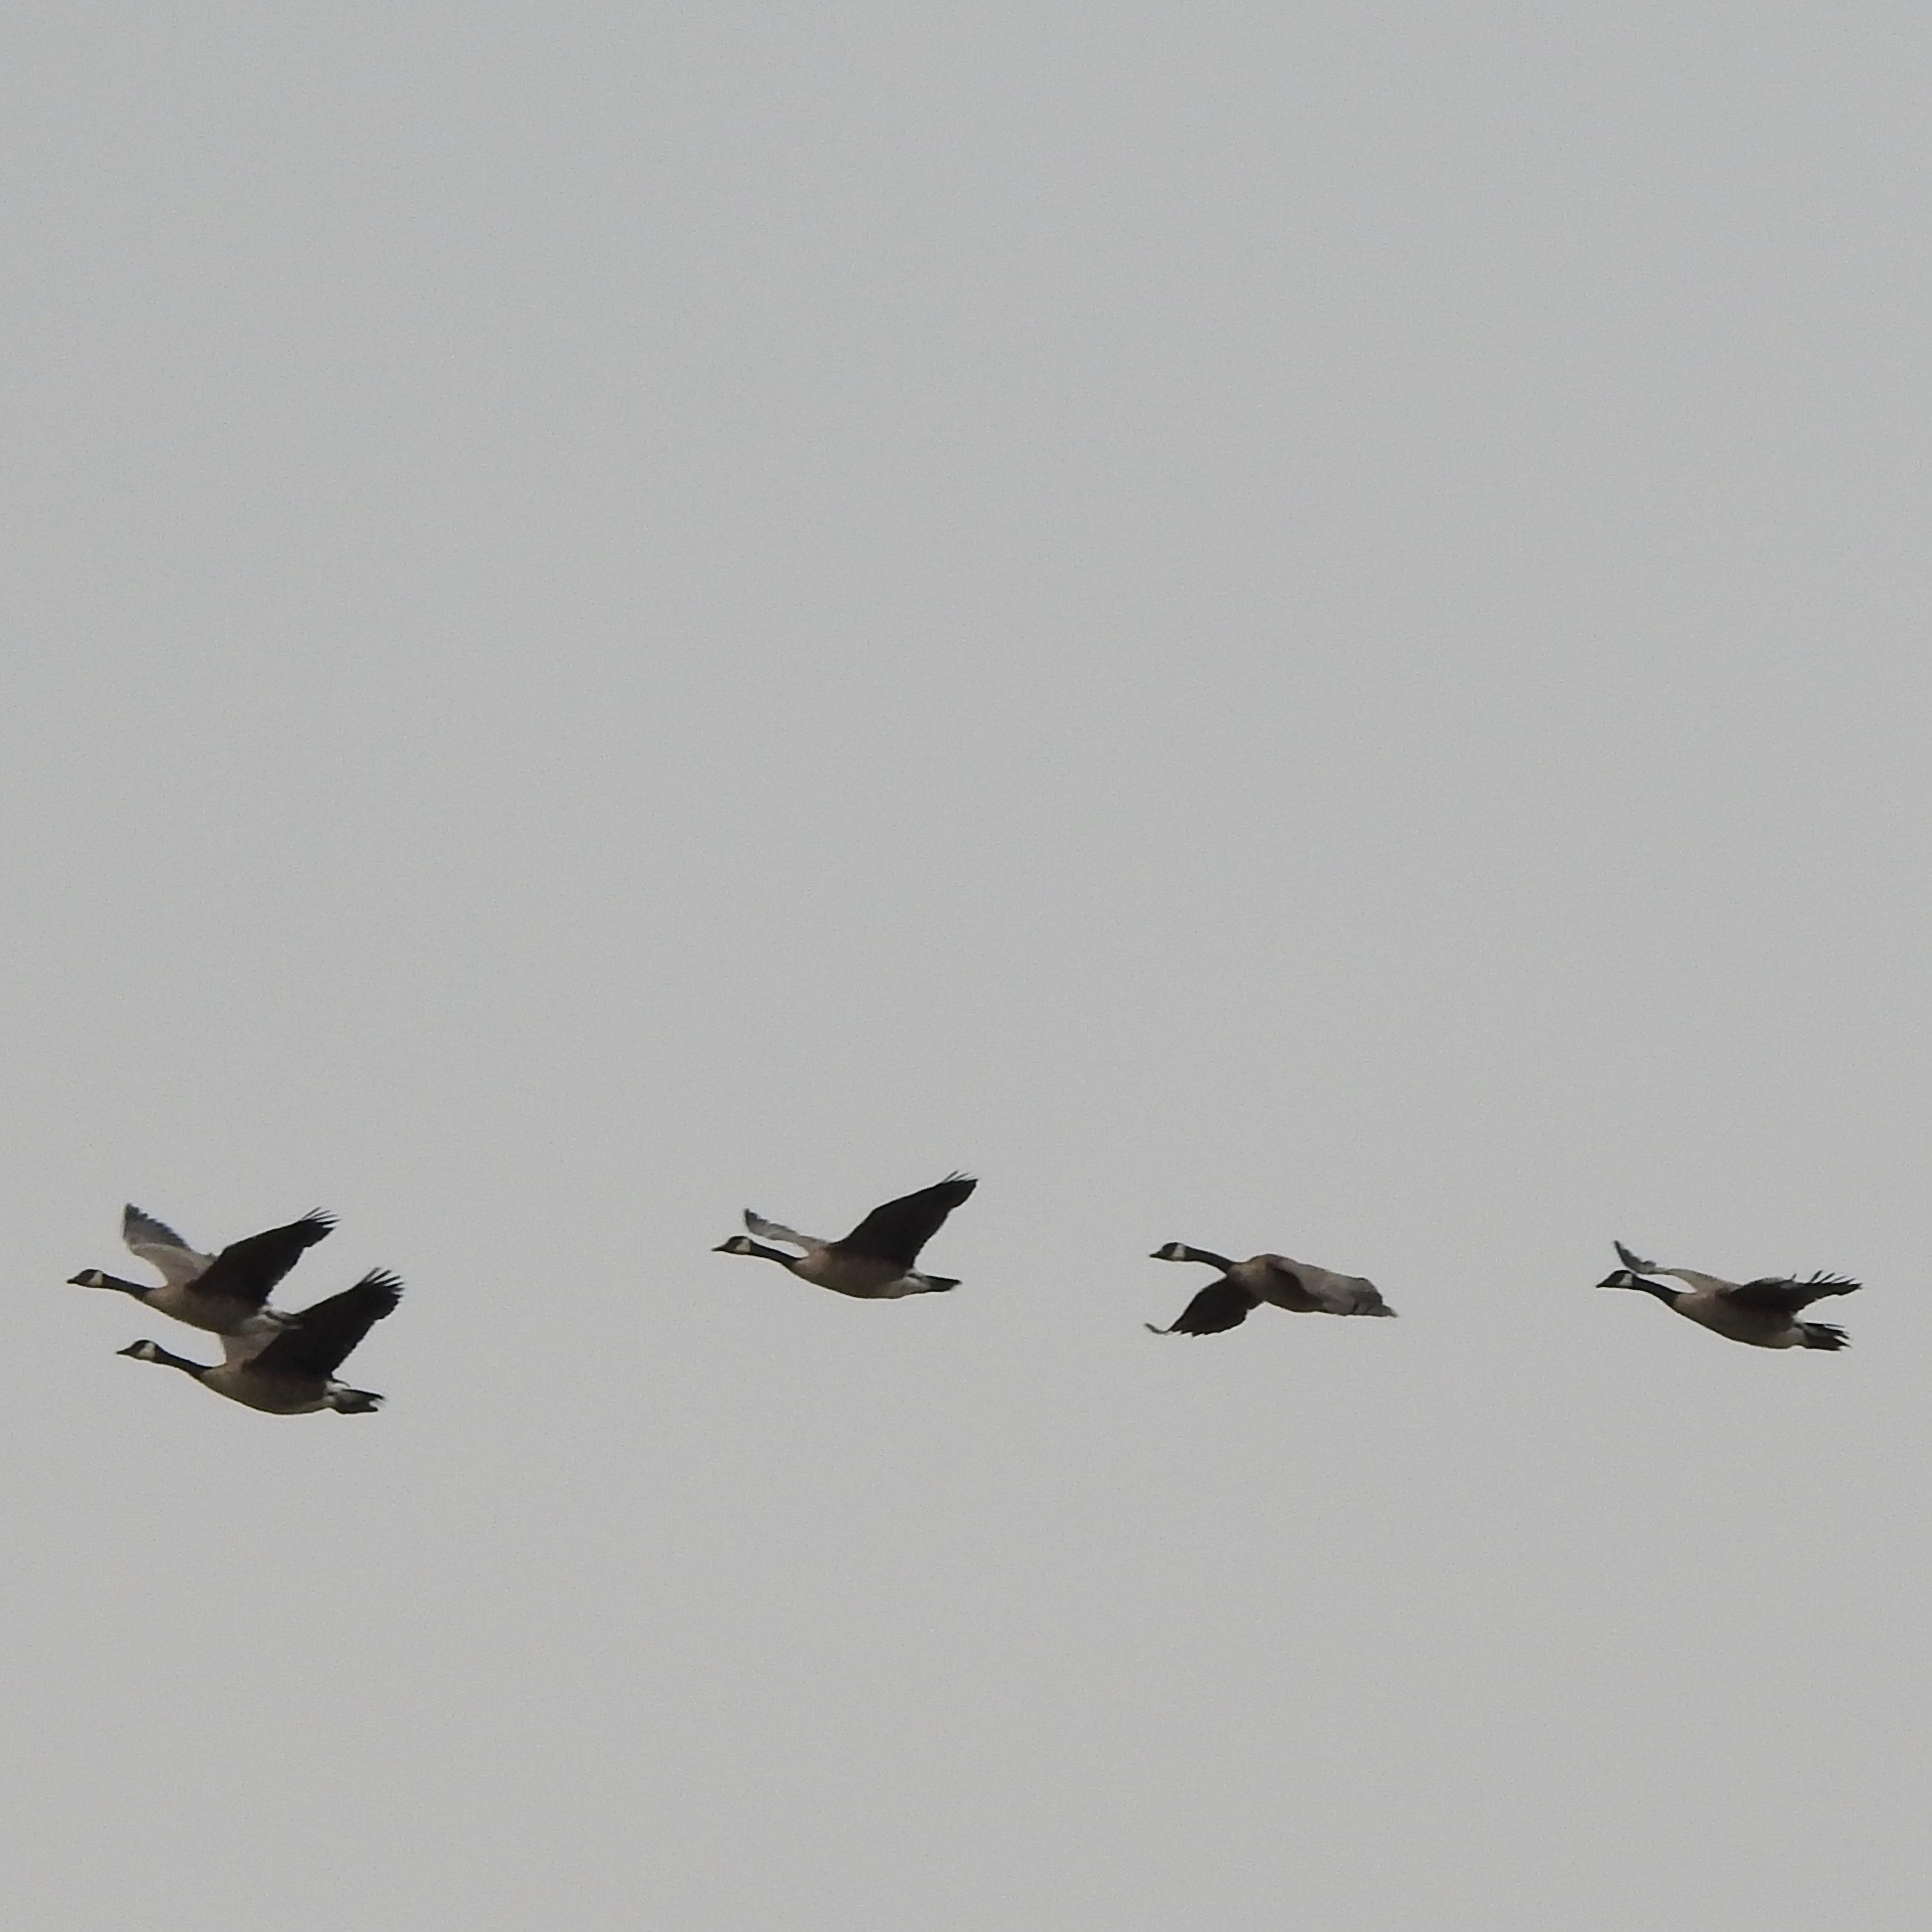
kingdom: Animalia
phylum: Chordata
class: Aves
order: Anseriformes
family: Anatidae
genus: Branta
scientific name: Branta canadensis
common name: Canada goose
